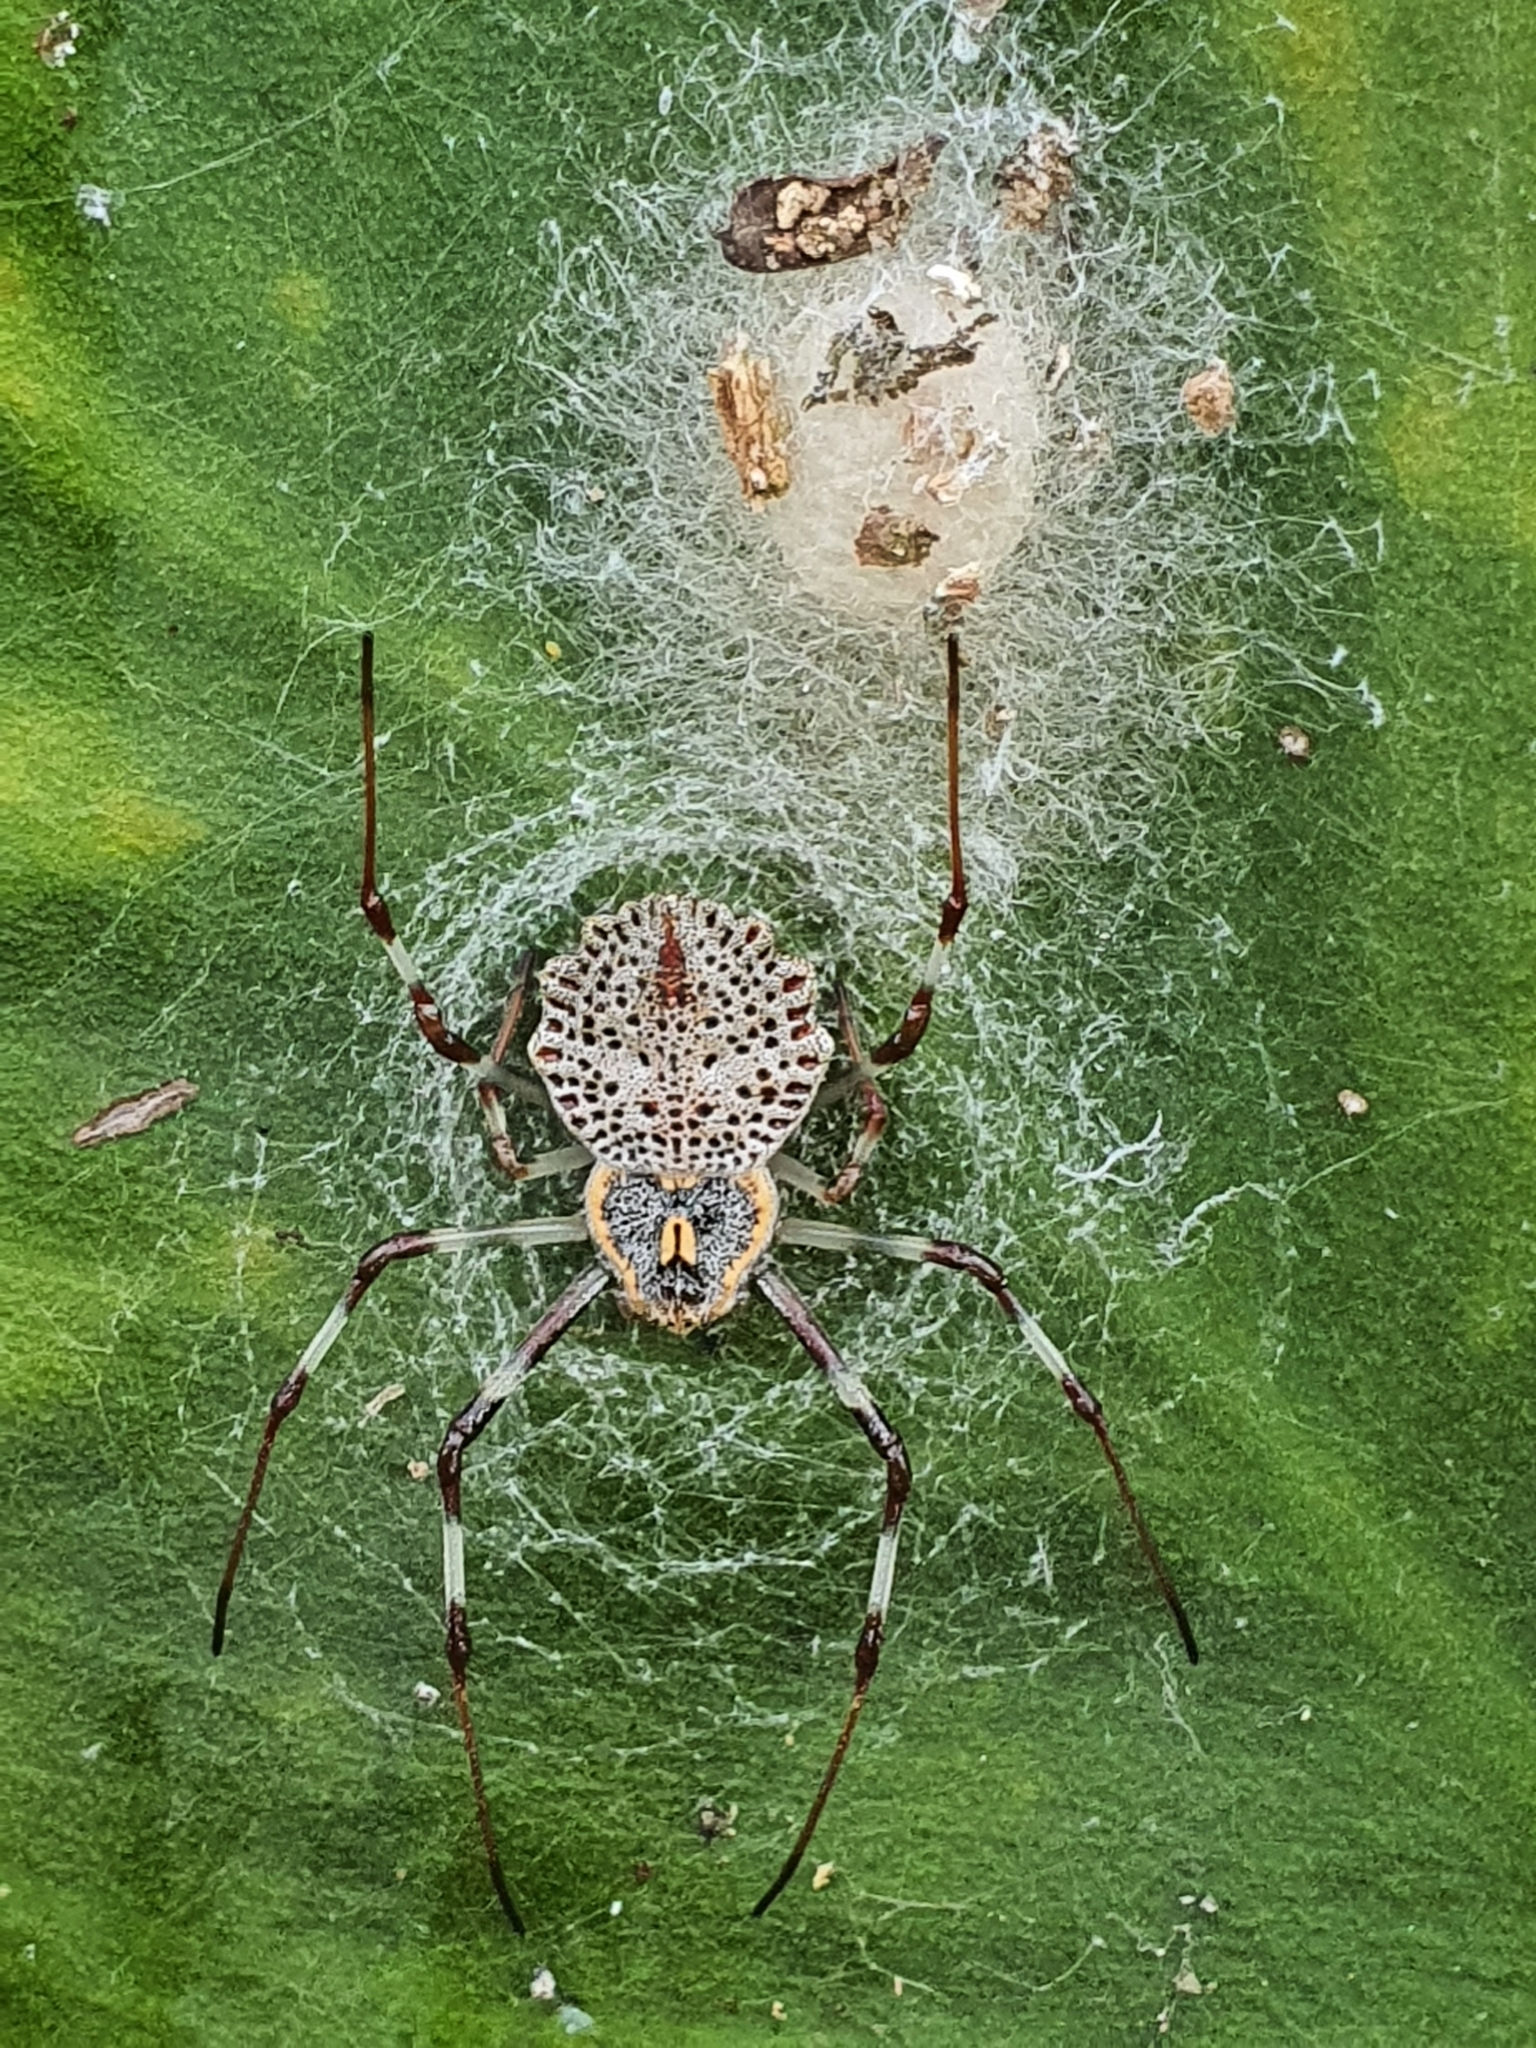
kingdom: Animalia
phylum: Arthropoda
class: Arachnida
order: Araneae
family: Araneidae
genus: Herennia
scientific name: Herennia multipuncta
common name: Spotted coin spider
